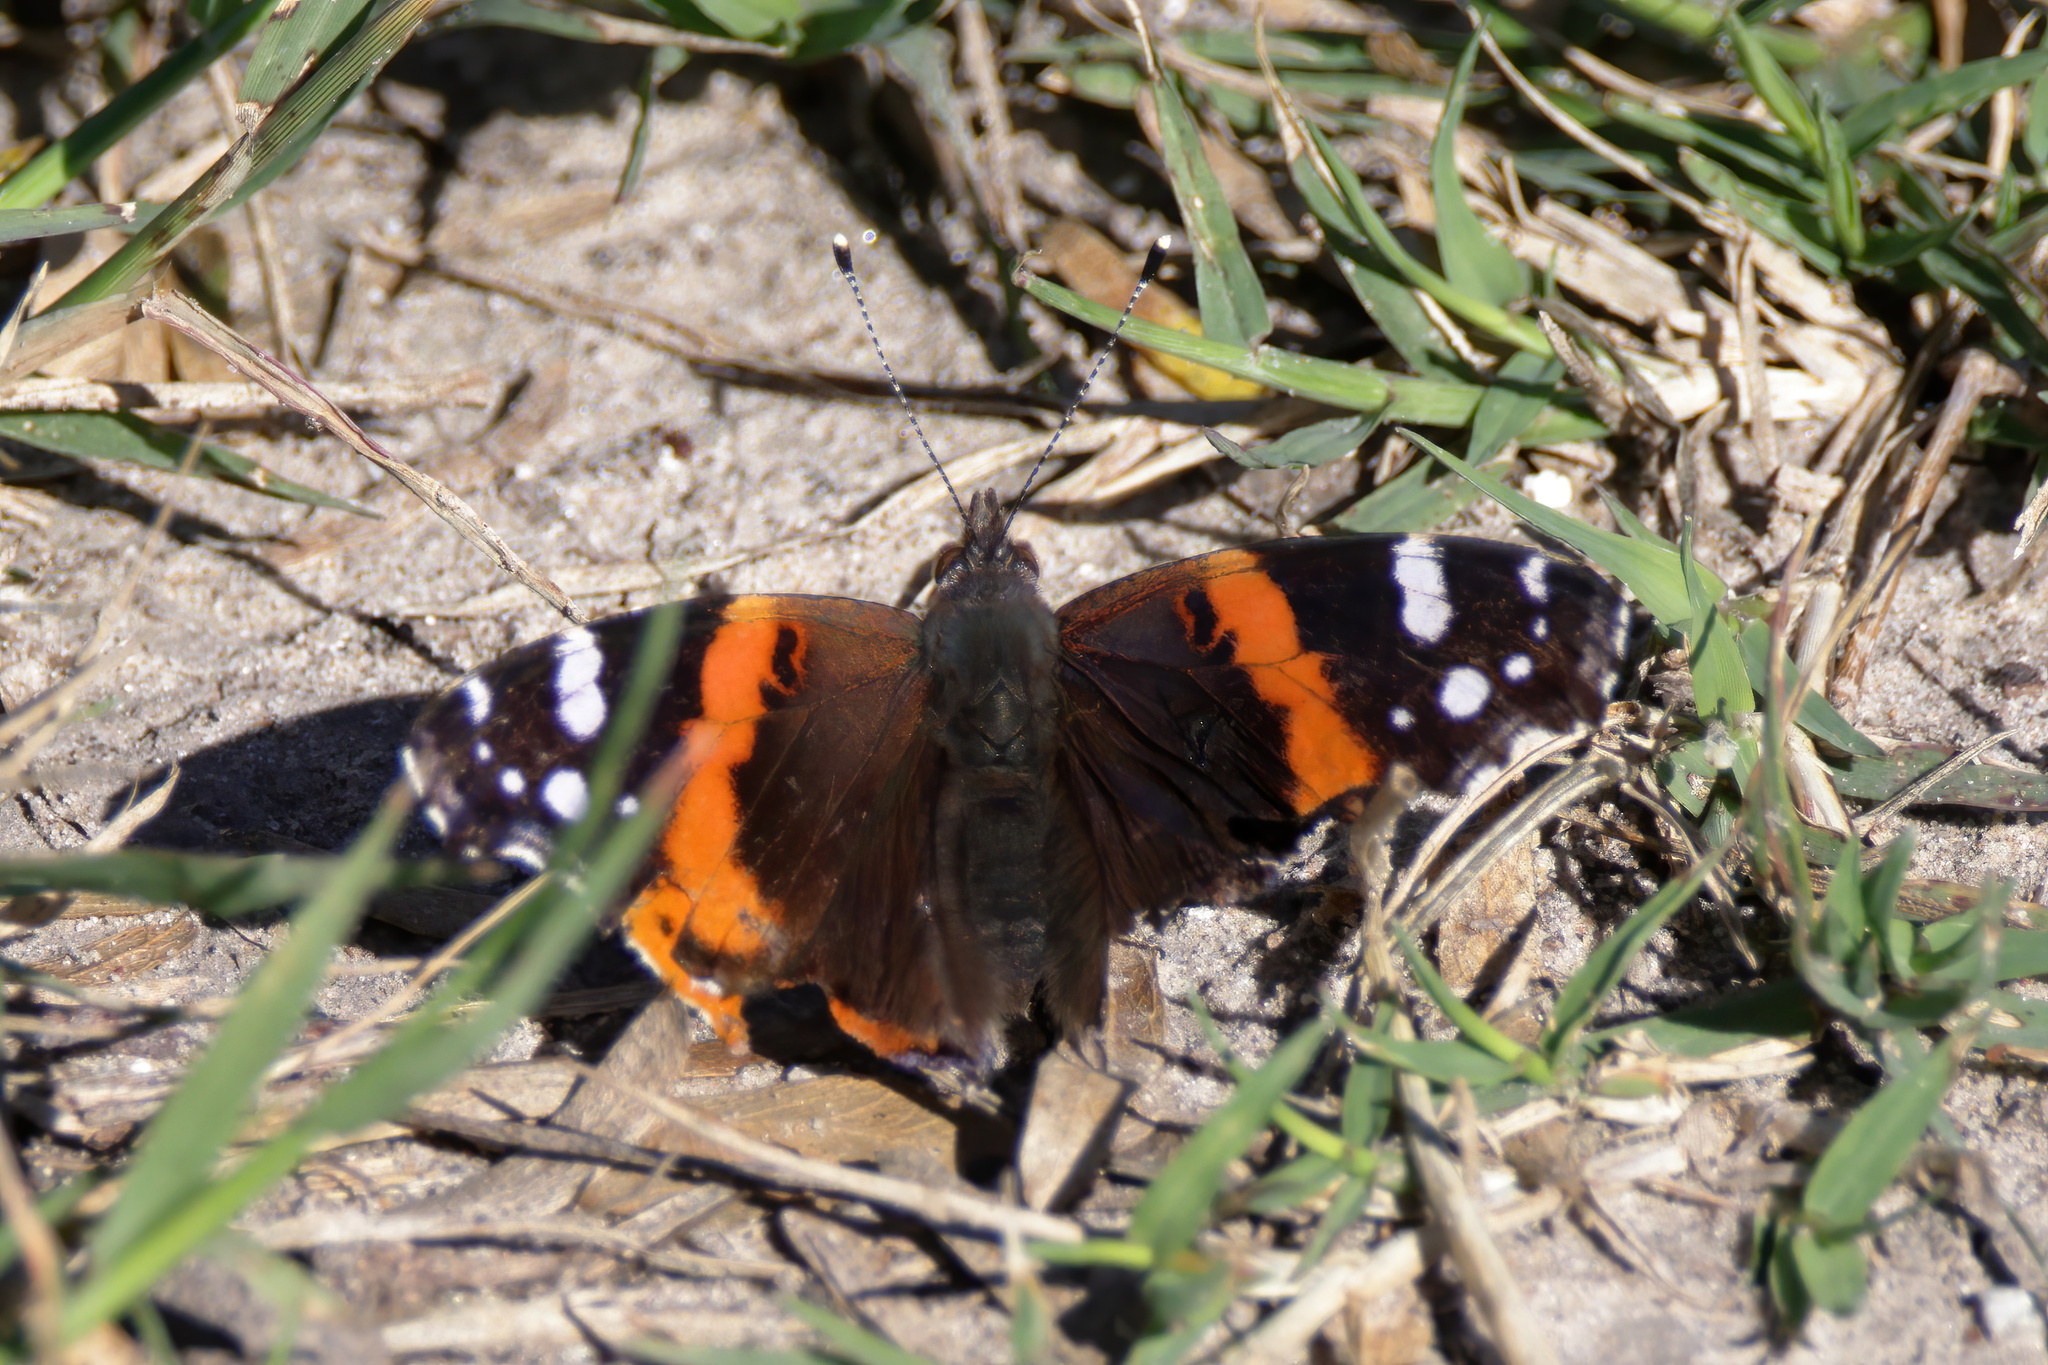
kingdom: Animalia
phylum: Arthropoda
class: Insecta
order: Lepidoptera
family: Nymphalidae
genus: Vanessa
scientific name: Vanessa atalanta
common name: Red admiral
